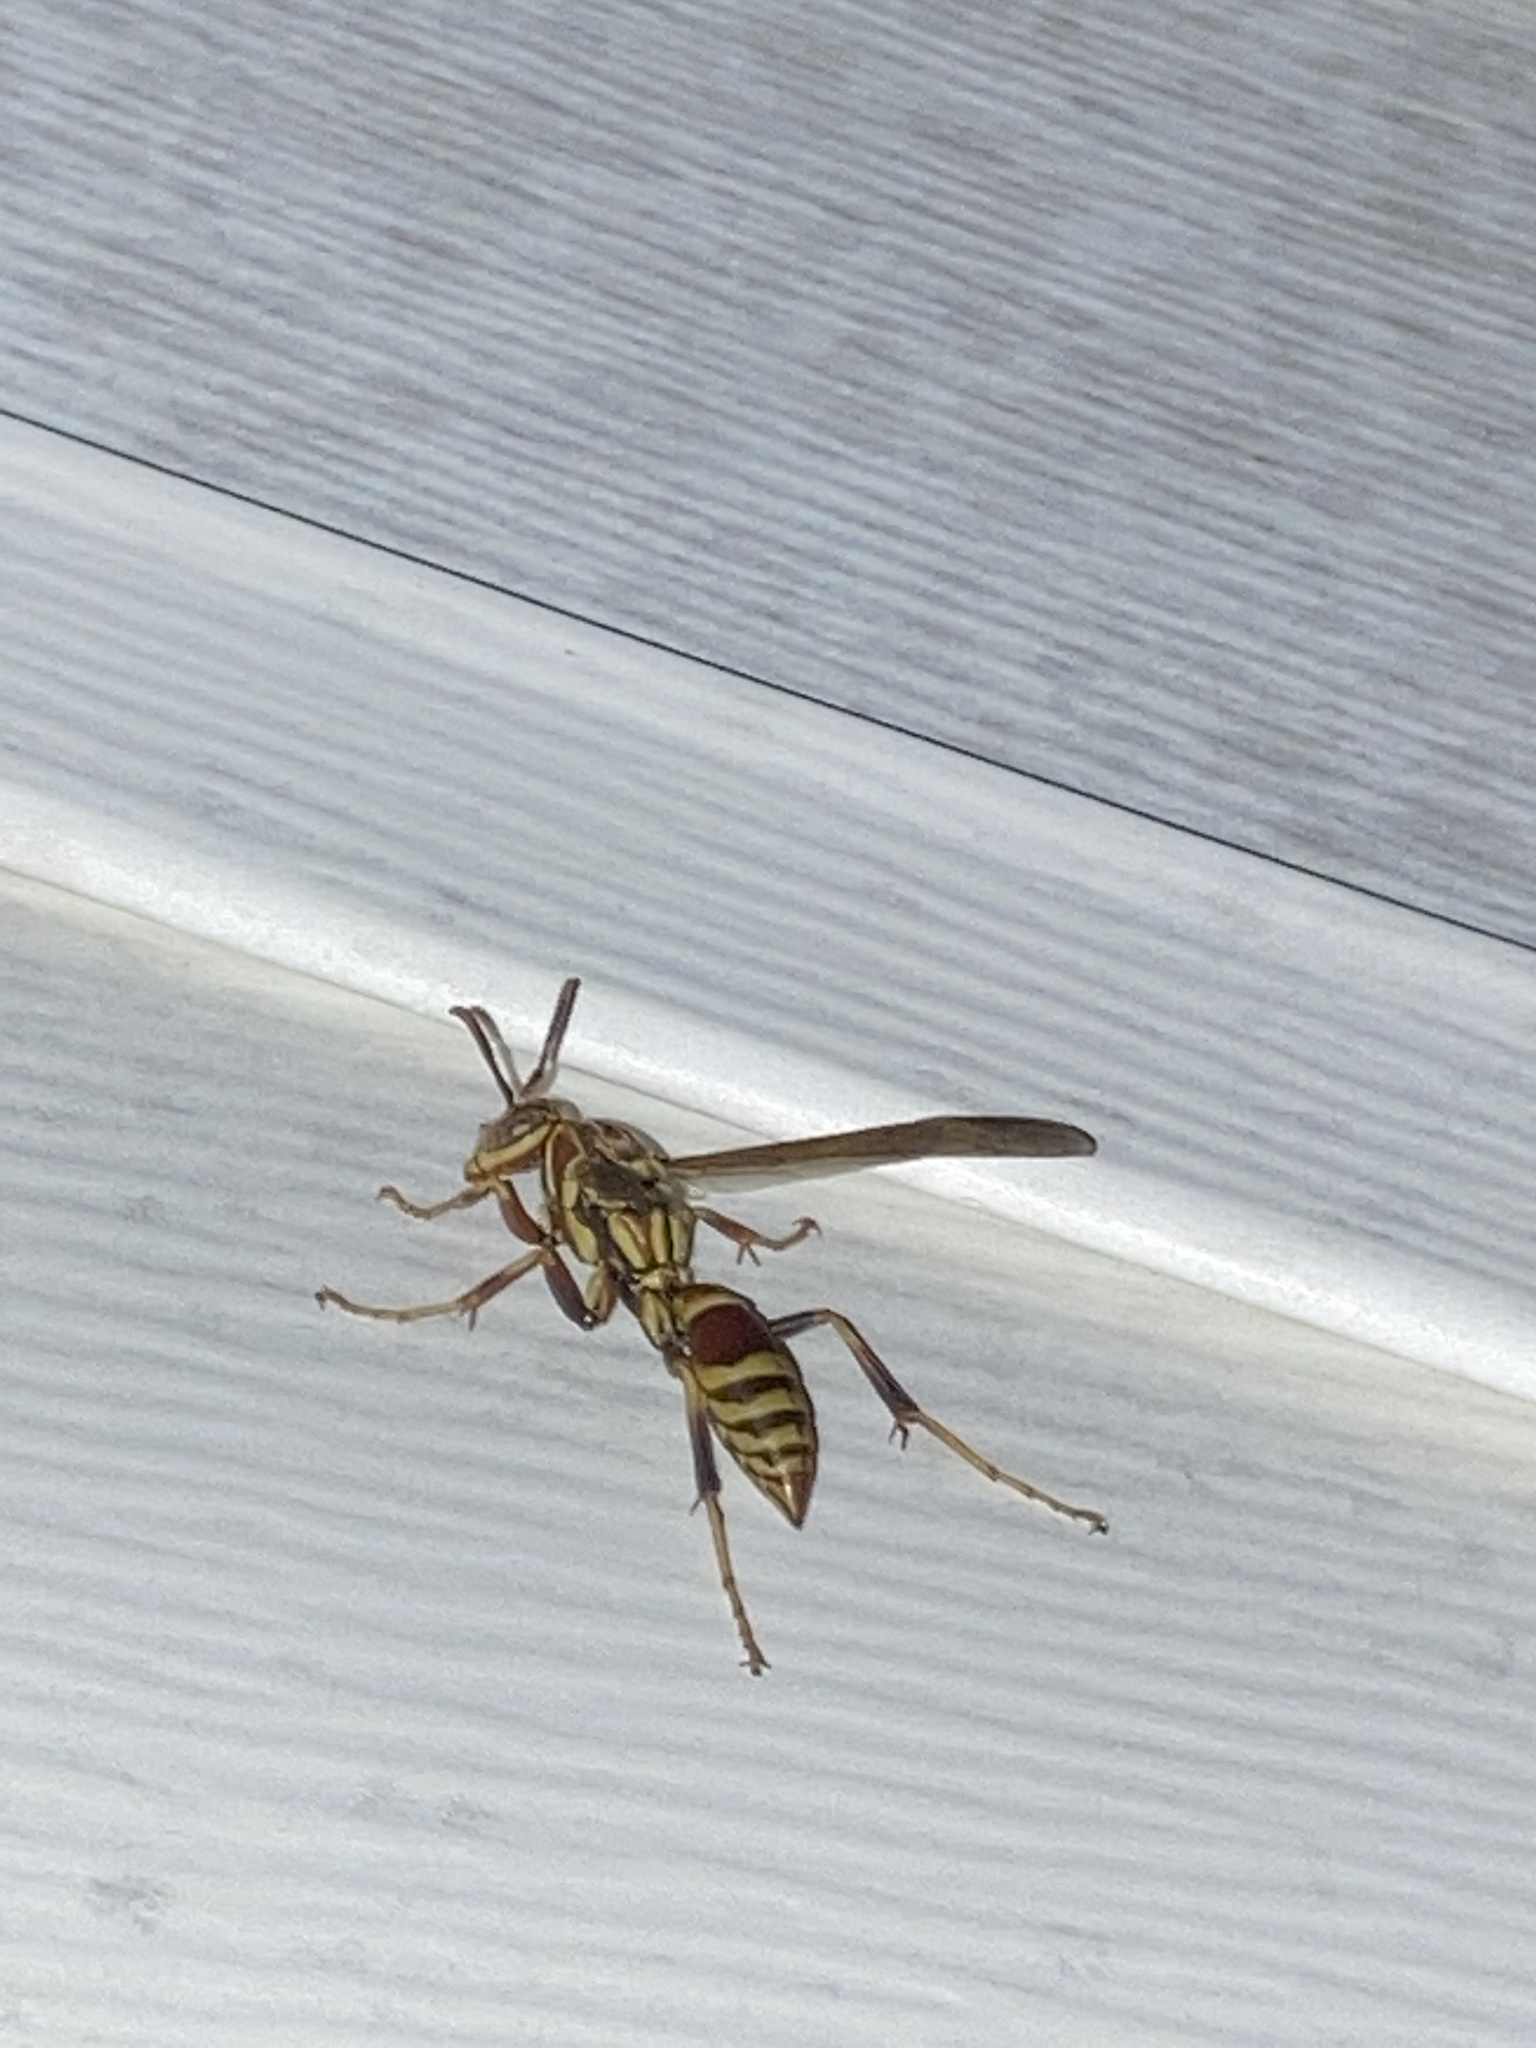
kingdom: Animalia
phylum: Arthropoda
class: Insecta
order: Hymenoptera
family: Eumenidae
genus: Polistes
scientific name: Polistes exclamans
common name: Paper wasp
